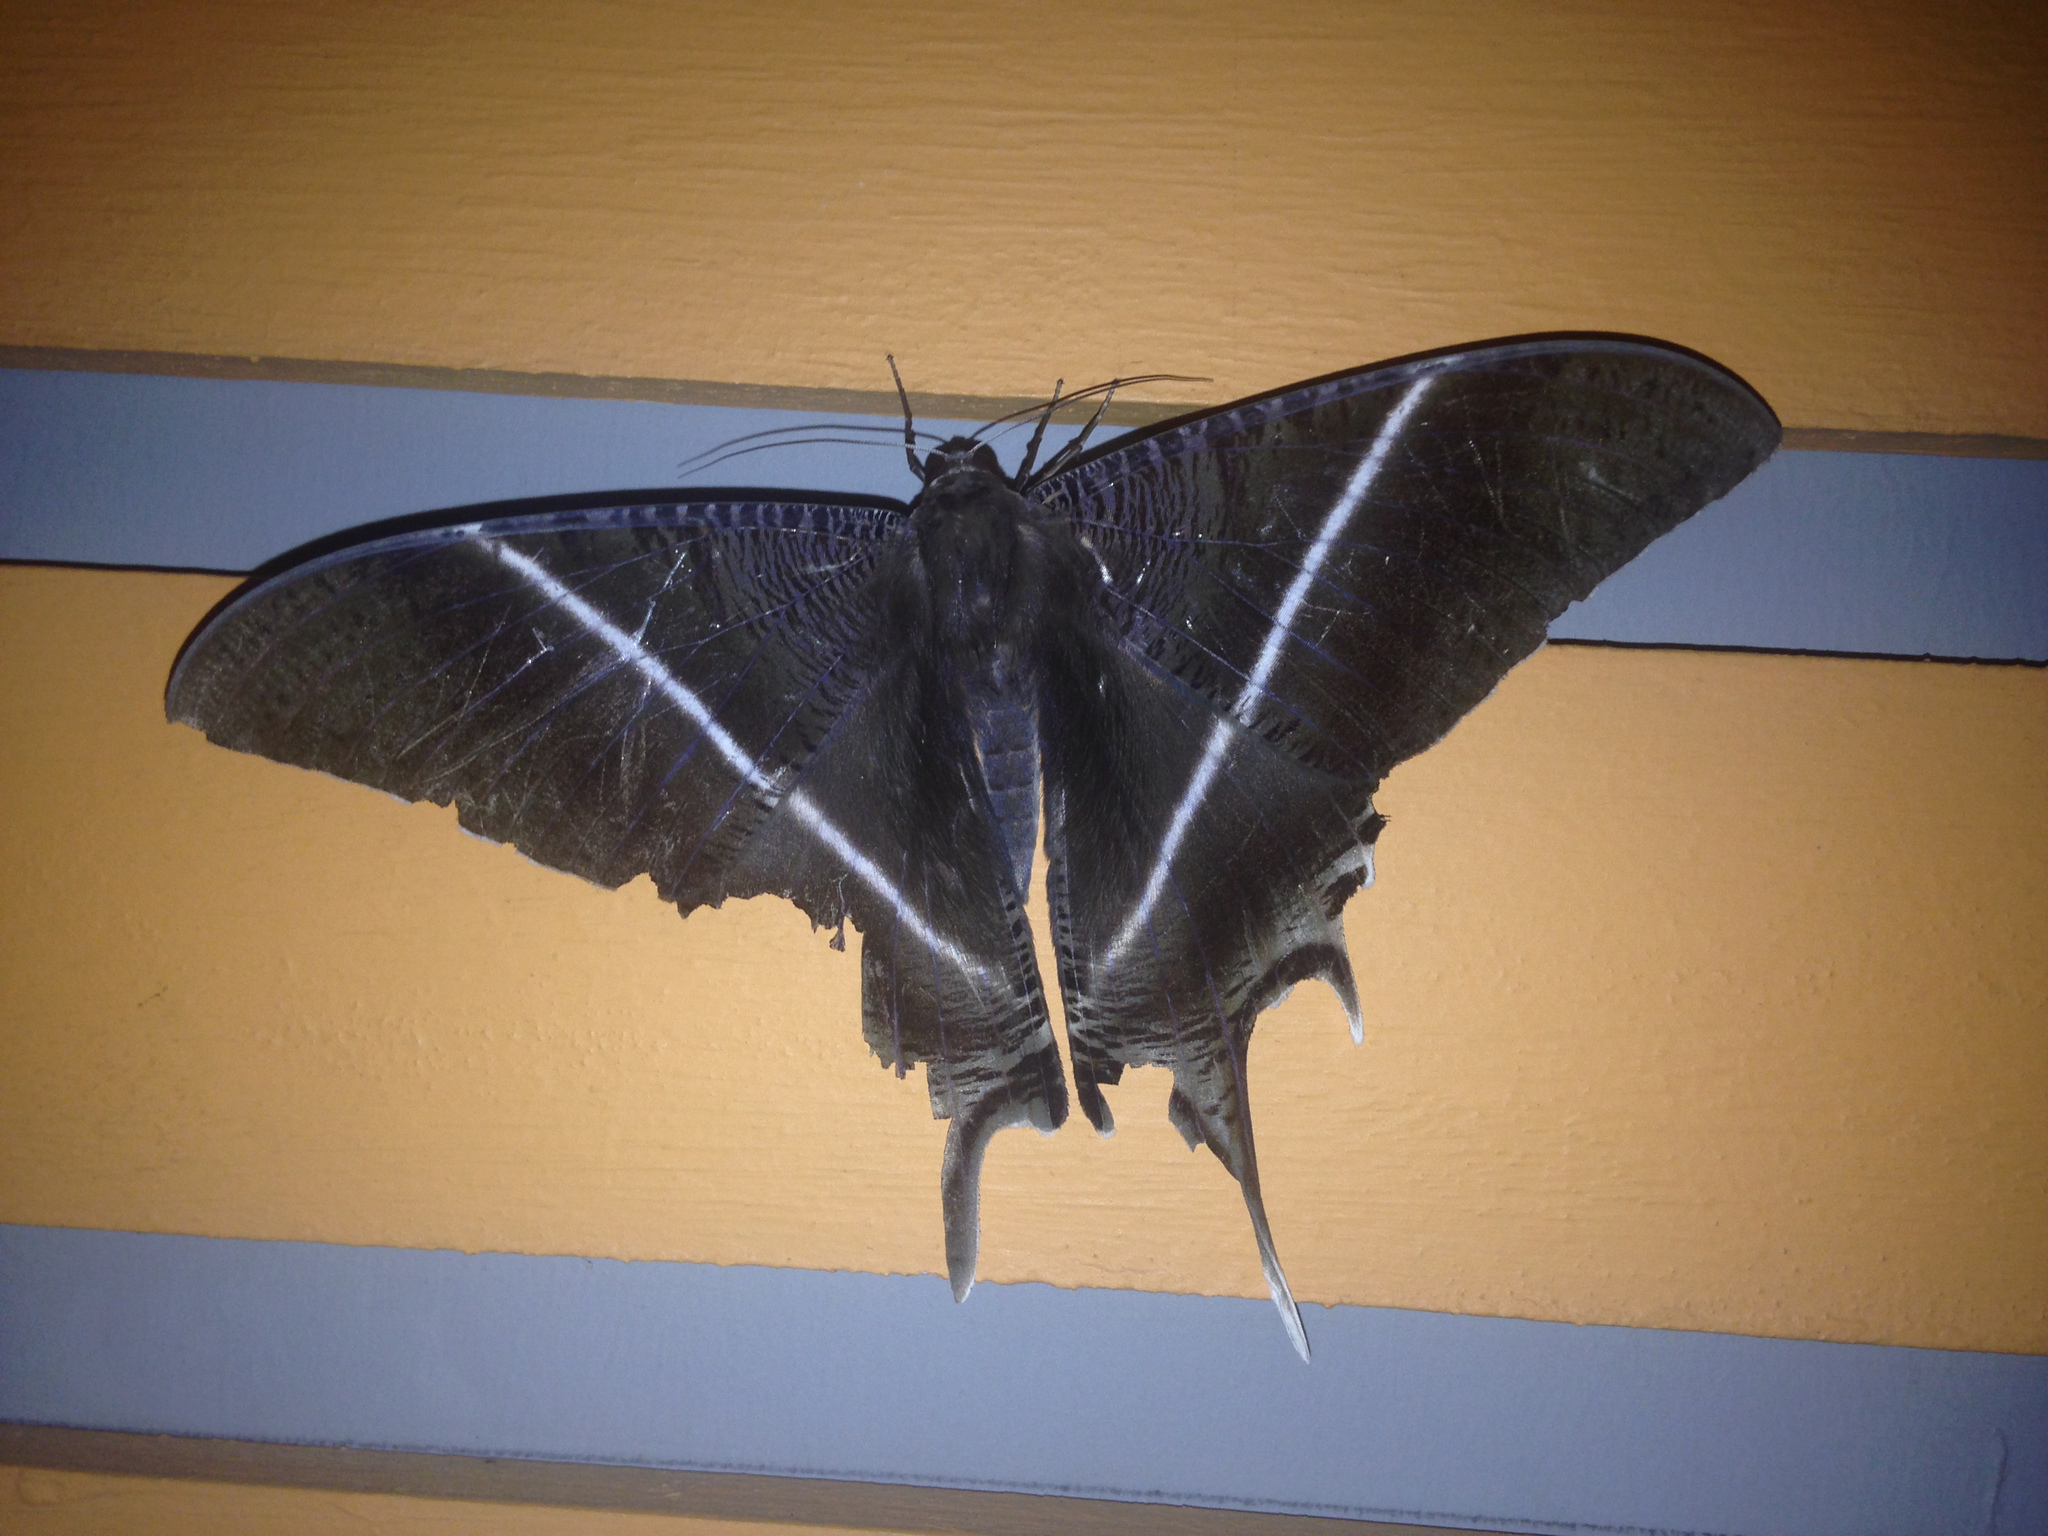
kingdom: Animalia
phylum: Arthropoda
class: Insecta
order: Lepidoptera
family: Uraniidae
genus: Lyssa
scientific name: Lyssa menoetius
